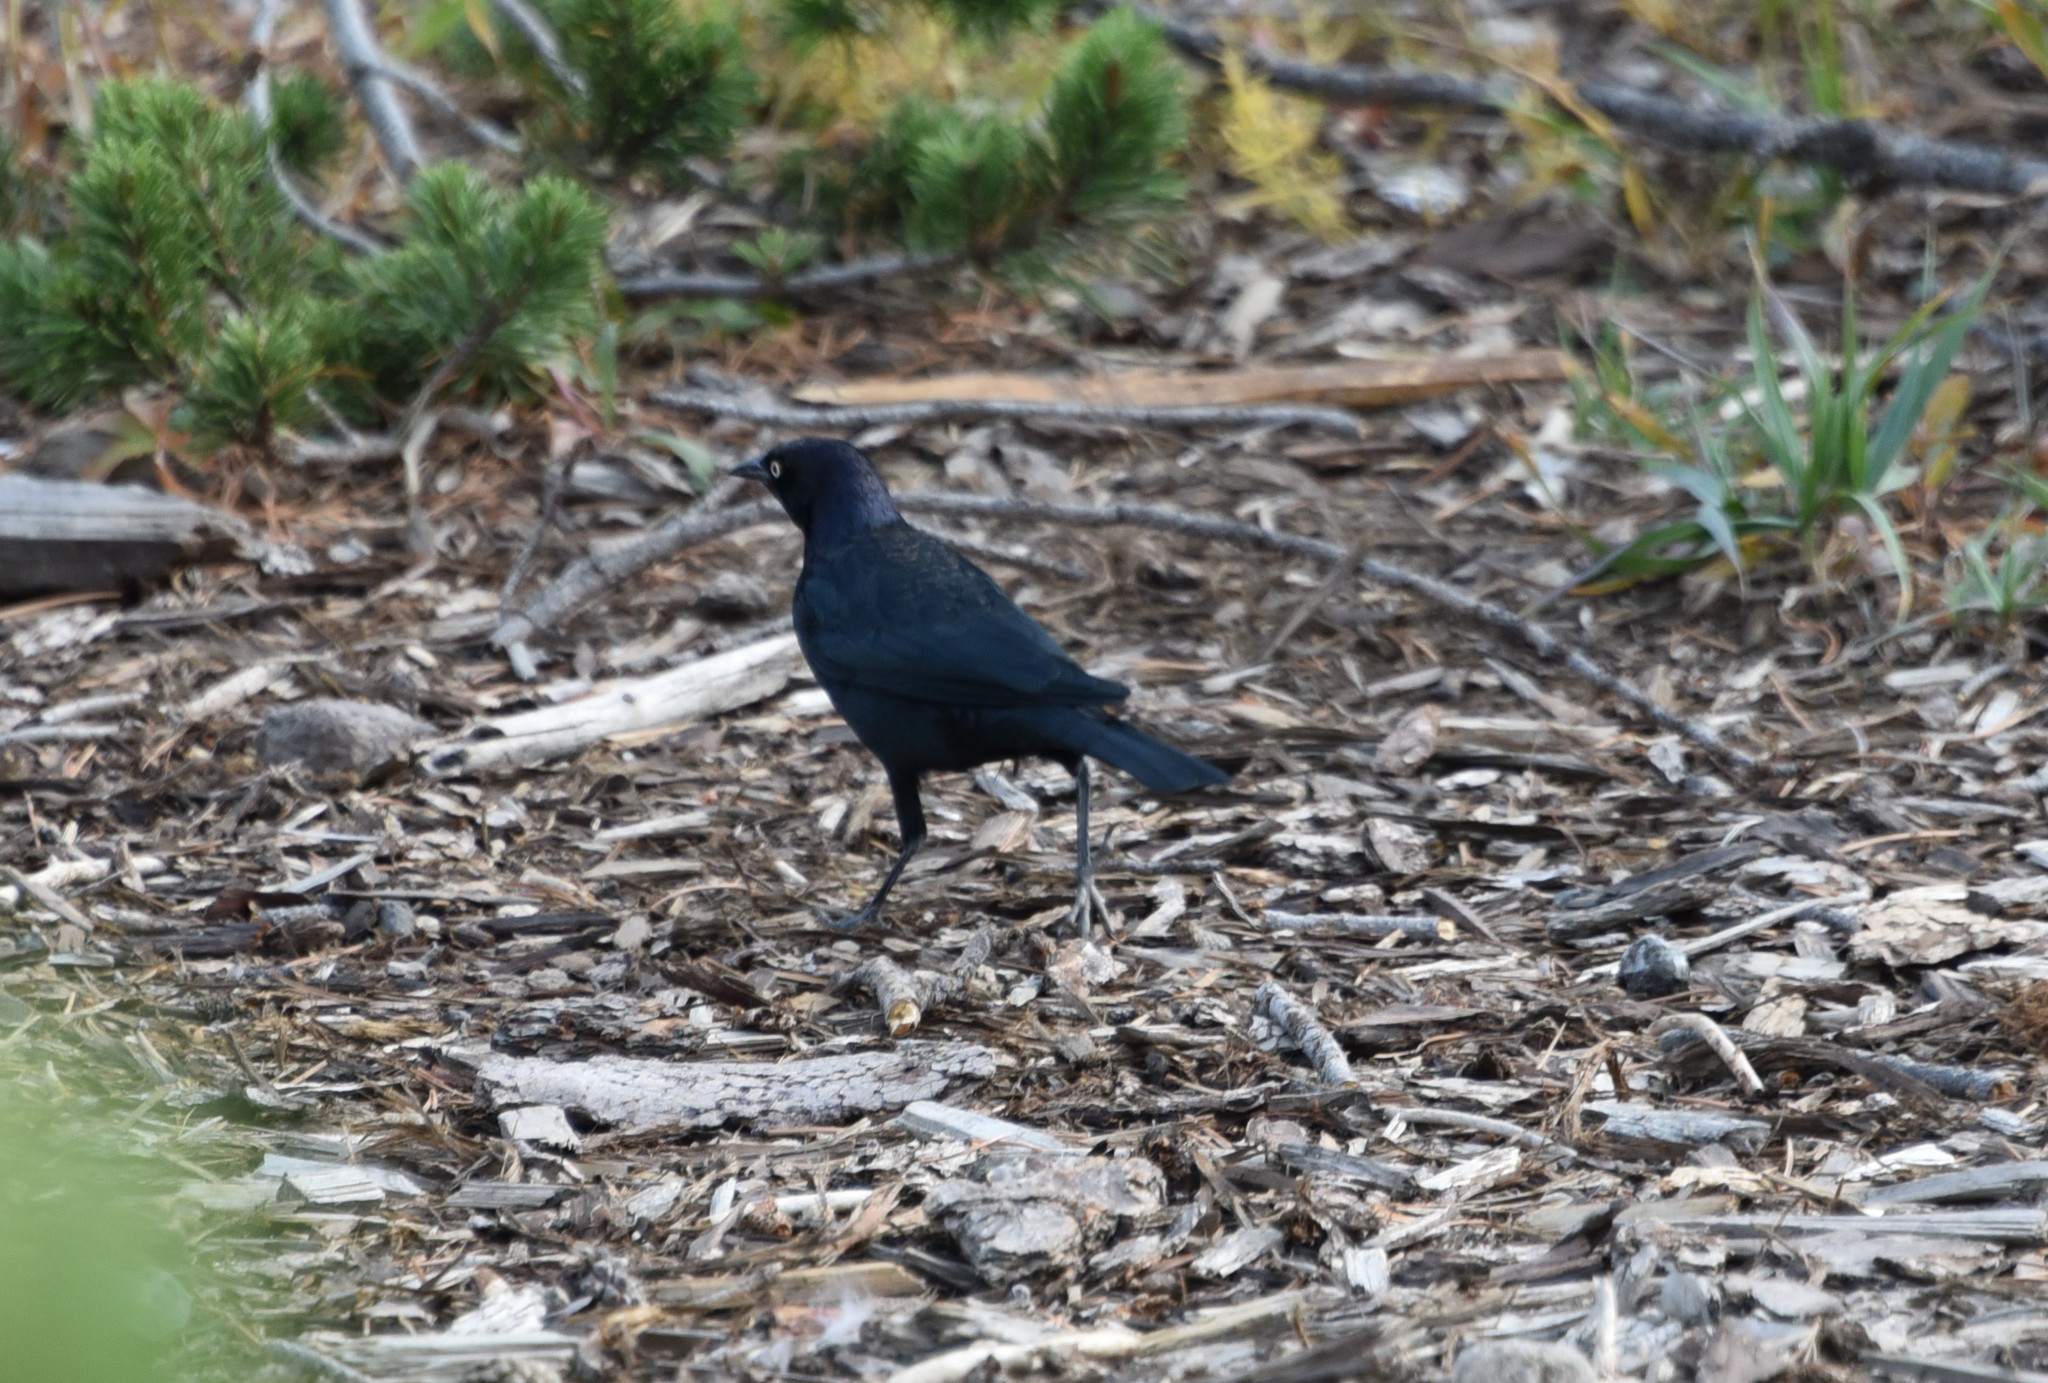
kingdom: Animalia
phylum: Chordata
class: Aves
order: Passeriformes
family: Icteridae
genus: Euphagus
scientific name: Euphagus cyanocephalus
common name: Brewer's blackbird
